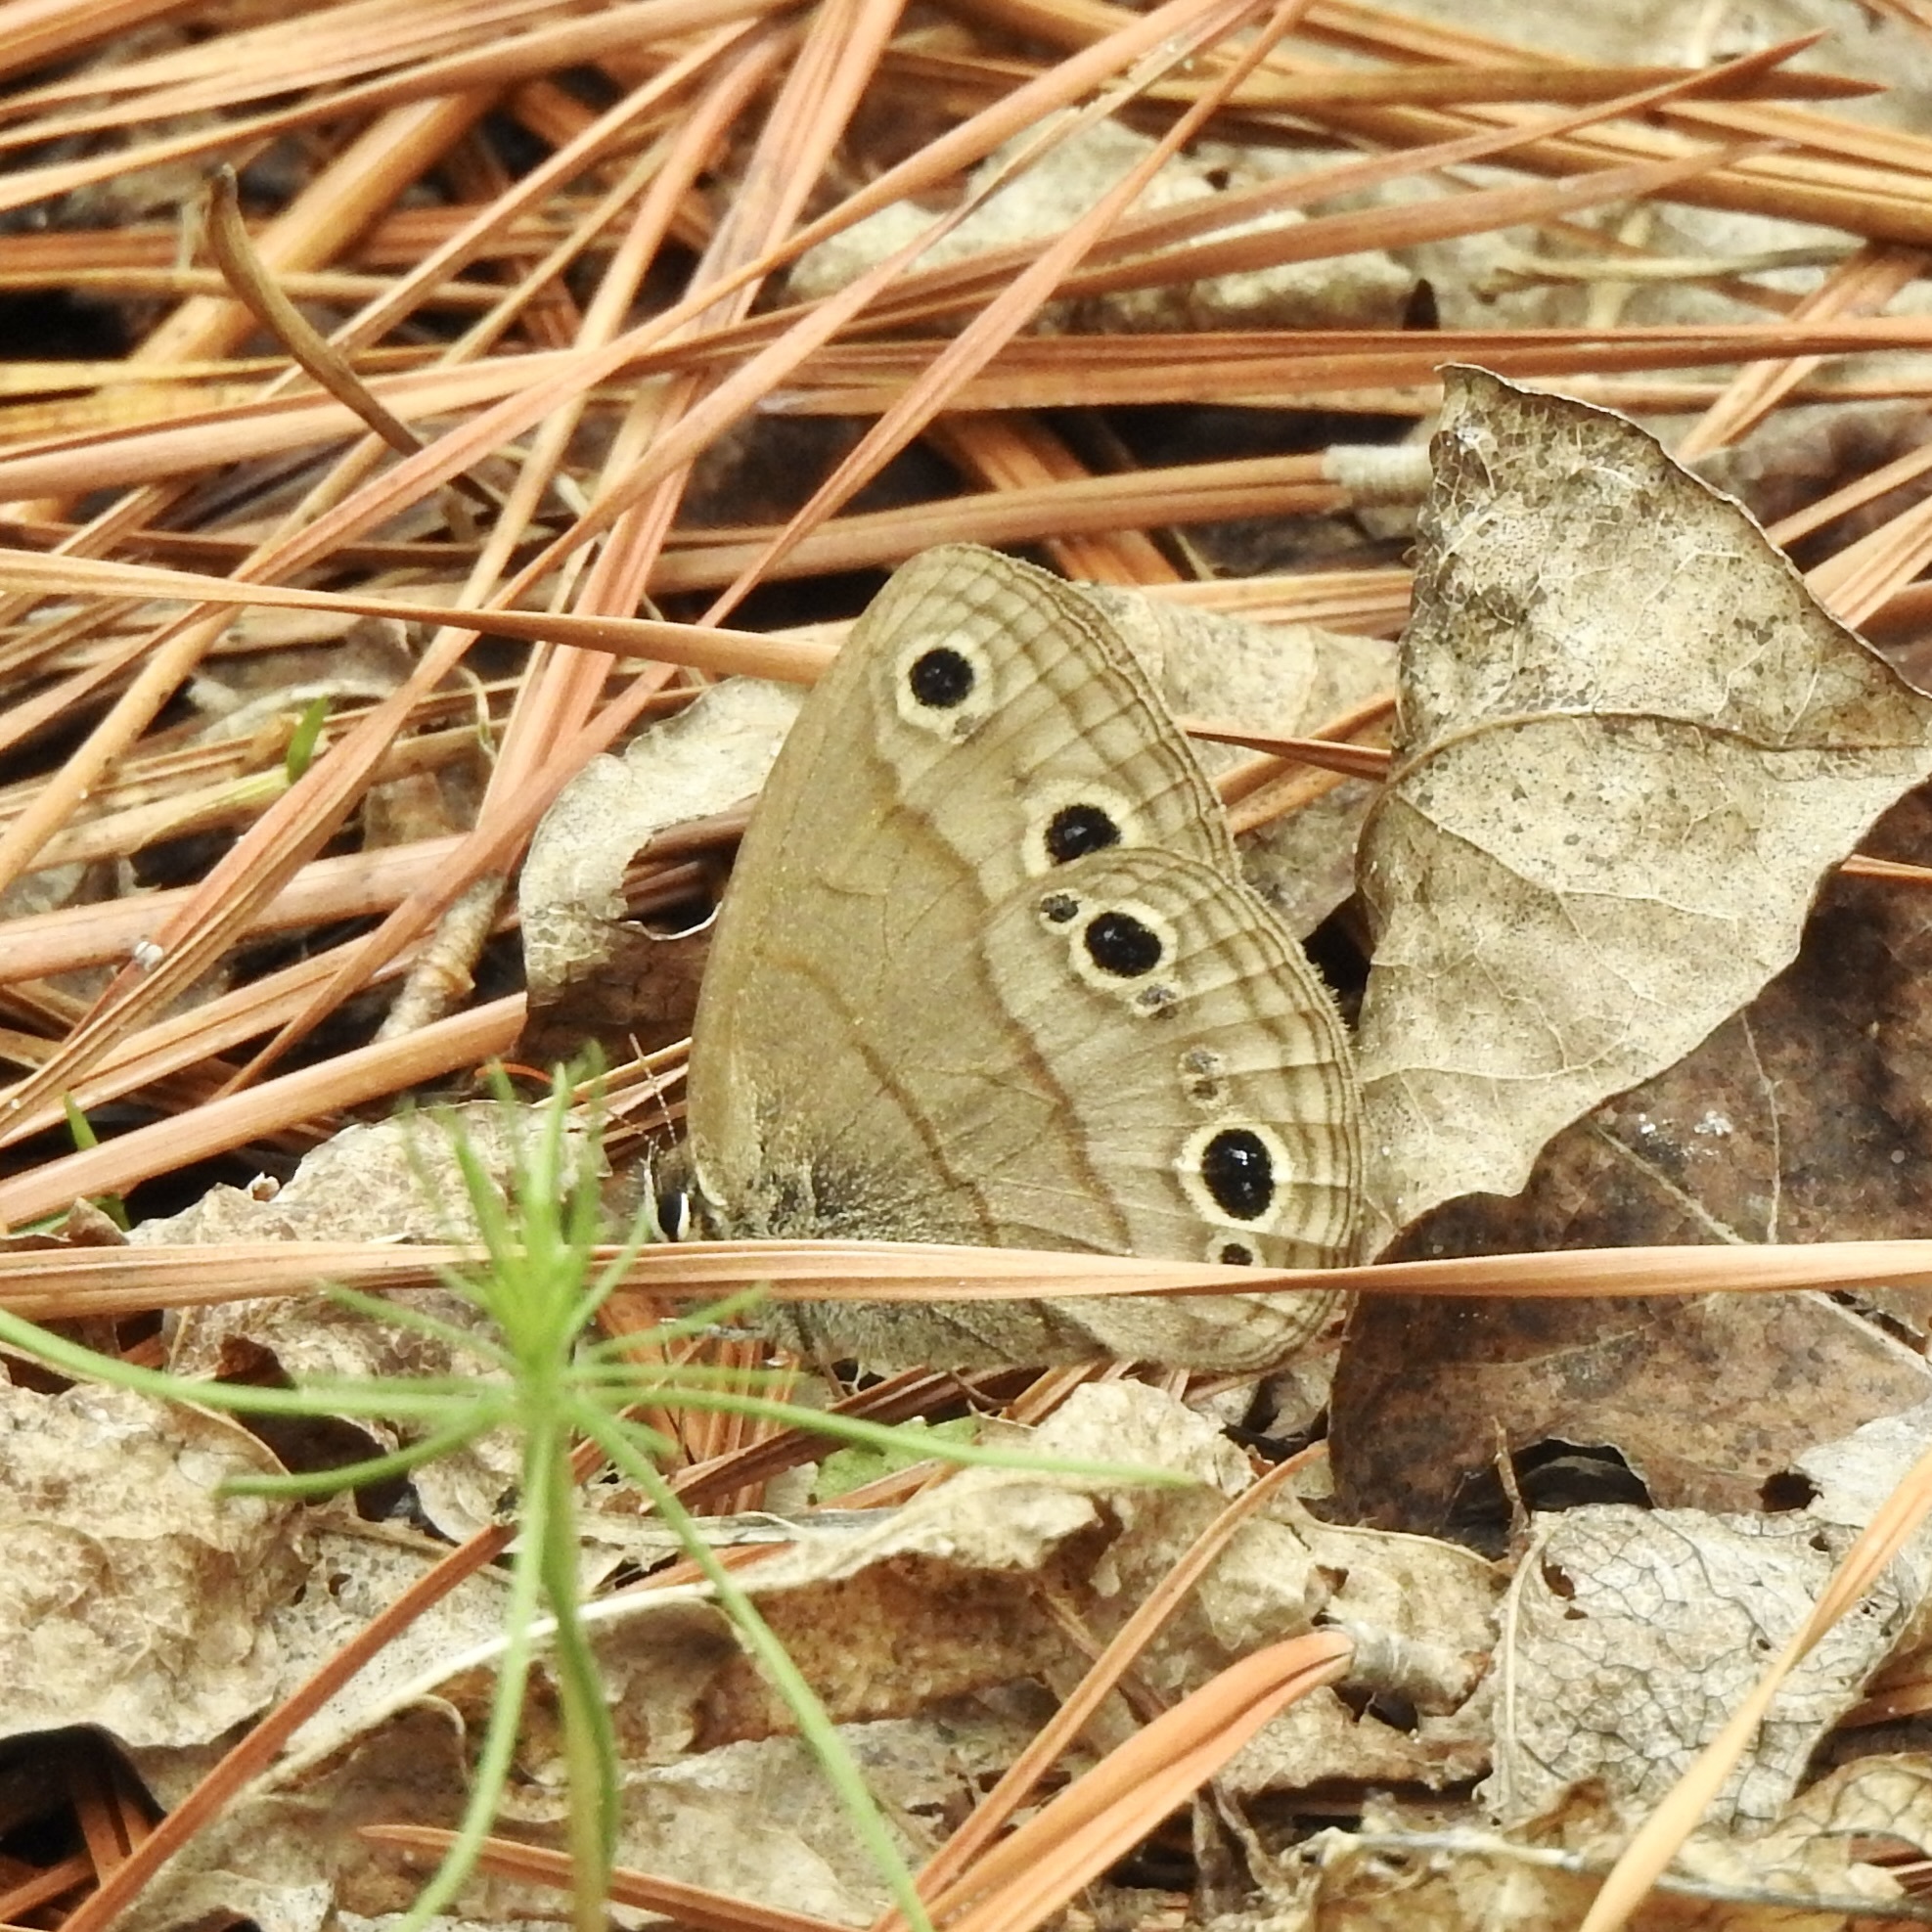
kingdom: Animalia
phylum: Arthropoda
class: Insecta
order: Lepidoptera
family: Nymphalidae
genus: Euptychia
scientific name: Euptychia cymela
